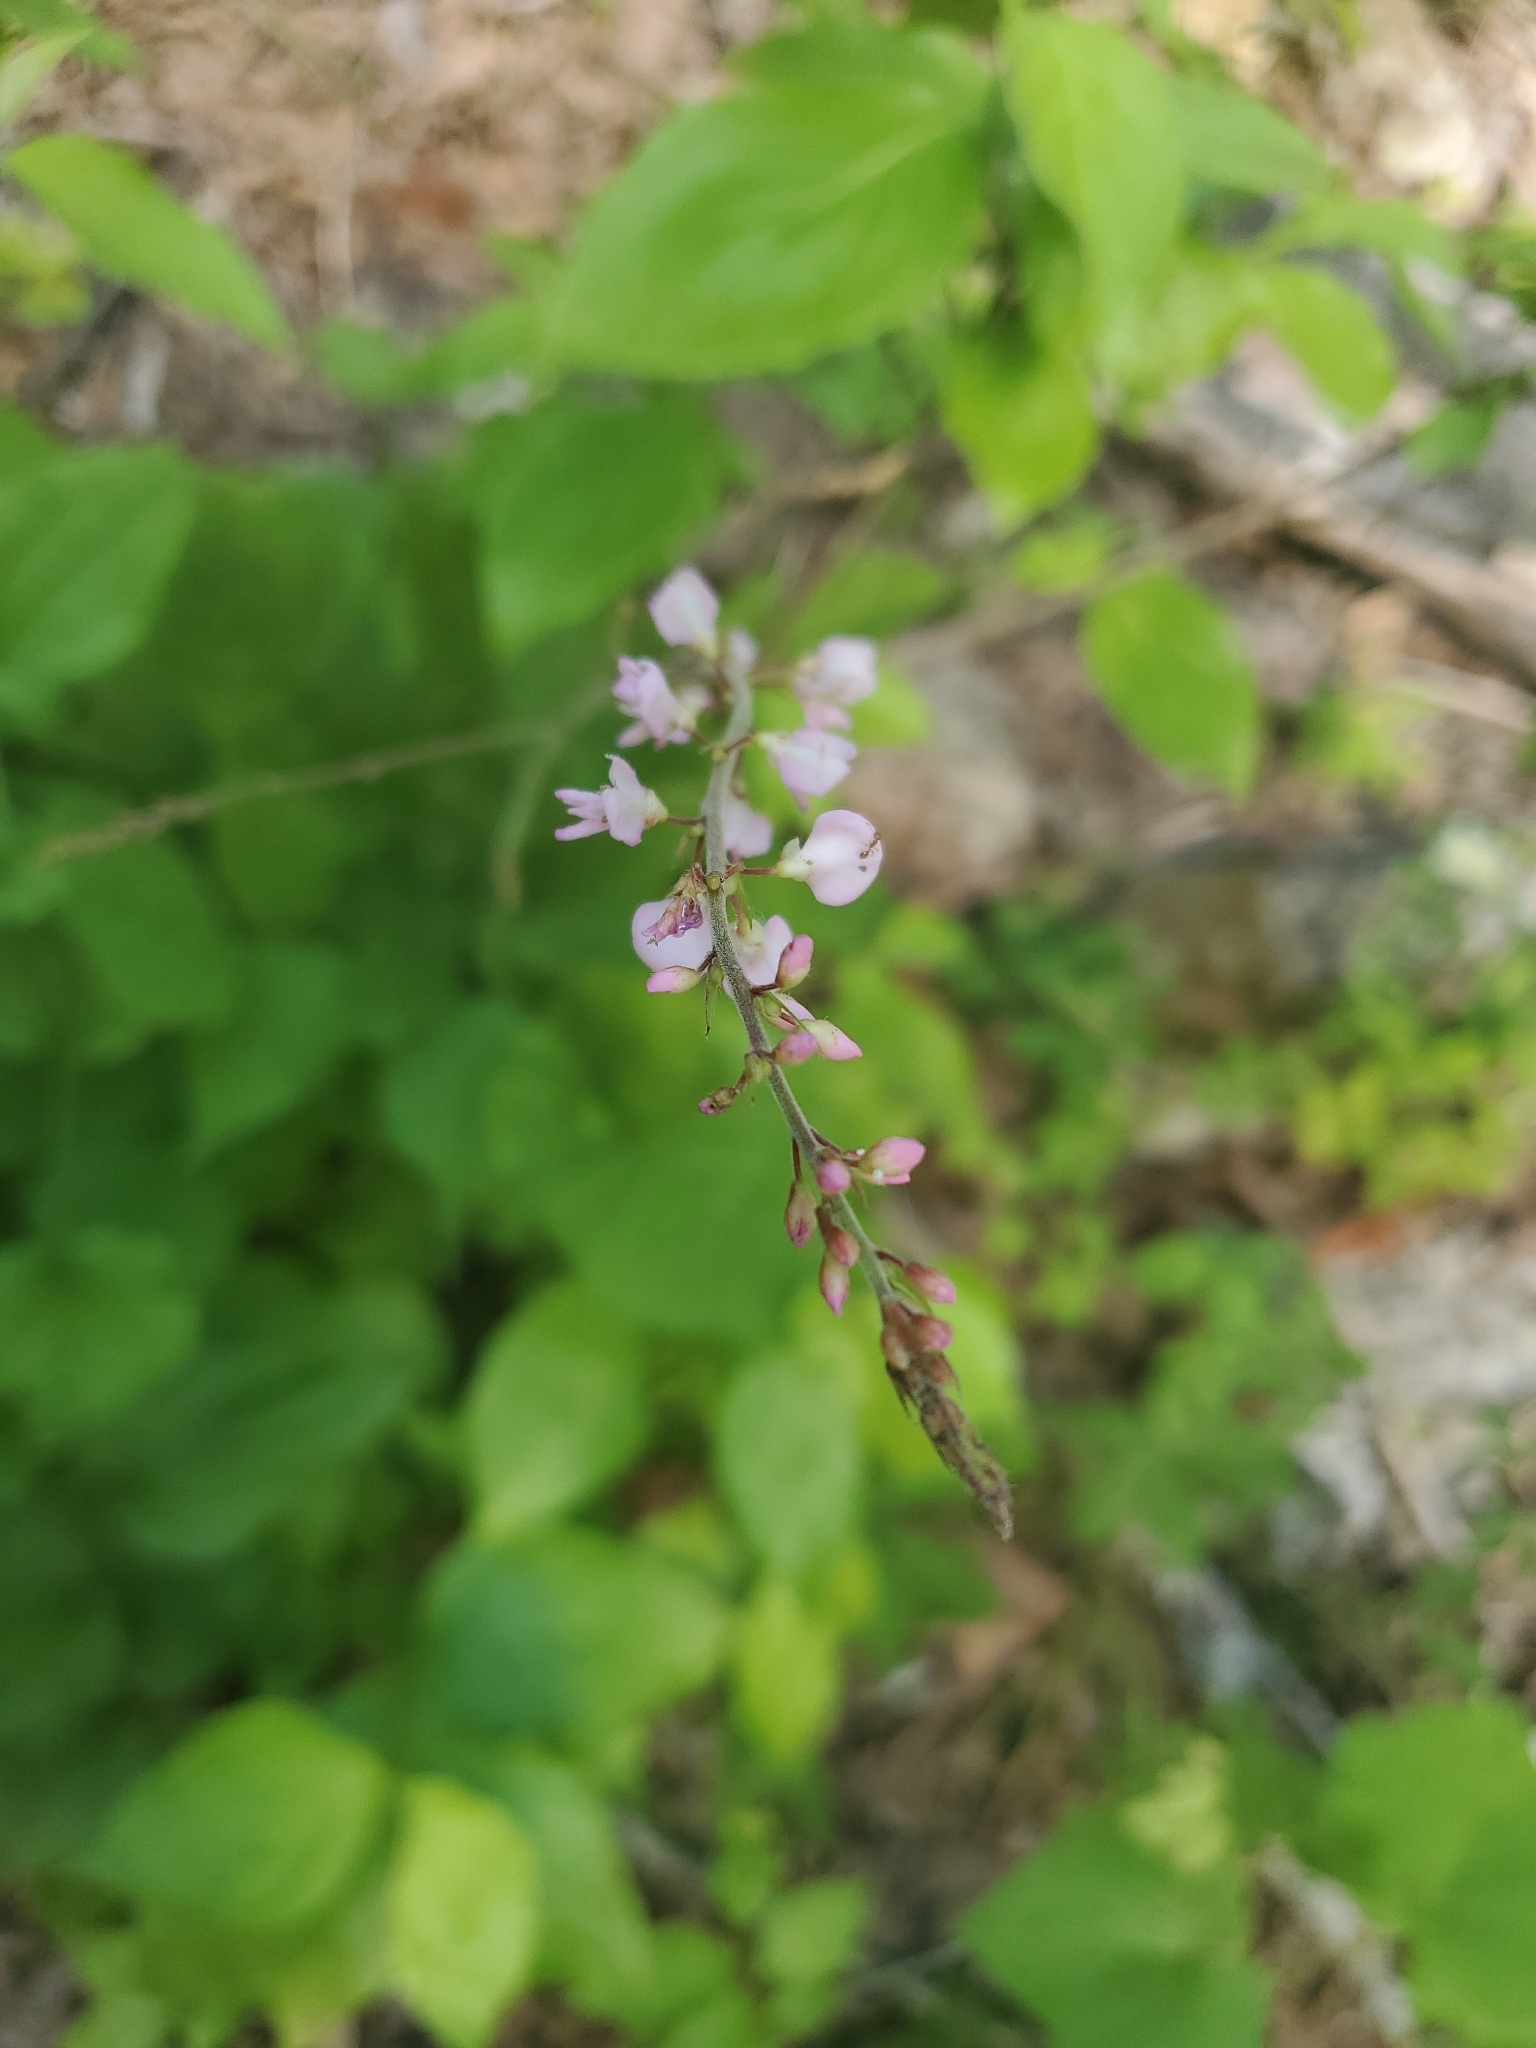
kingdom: Plantae
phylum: Tracheophyta
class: Magnoliopsida
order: Fabales
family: Fabaceae
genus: Hylodesmum
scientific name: Hylodesmum glutinosum
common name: Clustered-leaved tick-trefoil
